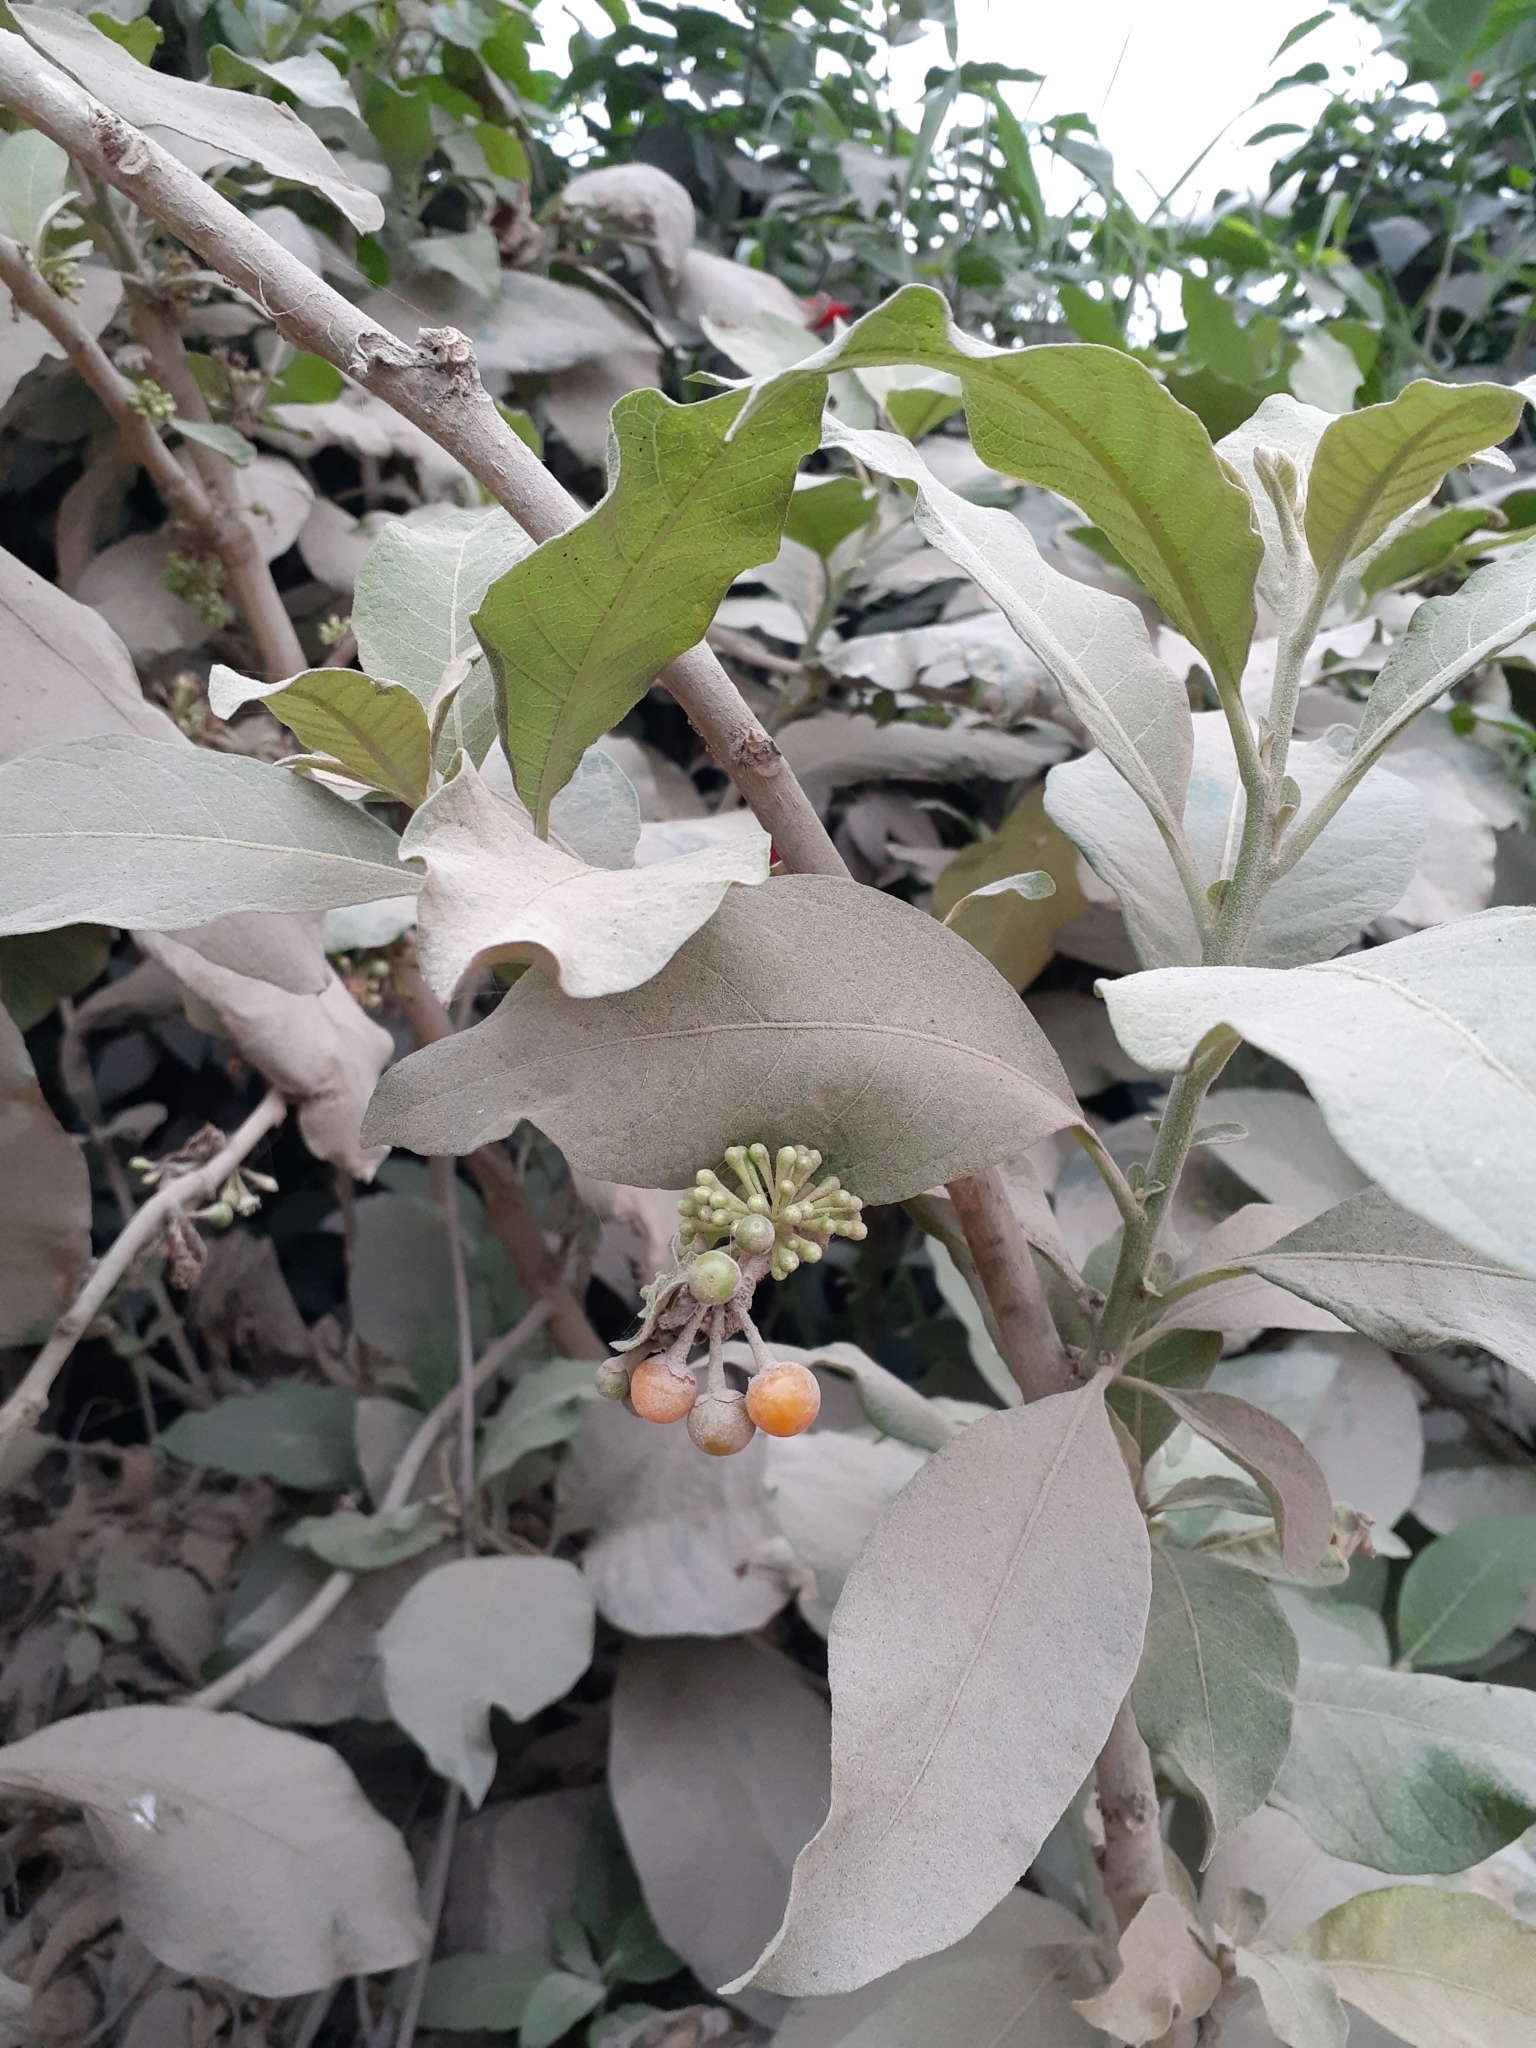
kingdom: Plantae
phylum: Tracheophyta
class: Magnoliopsida
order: Solanales
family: Solanaceae
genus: Iochroma
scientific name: Iochroma arborescens
